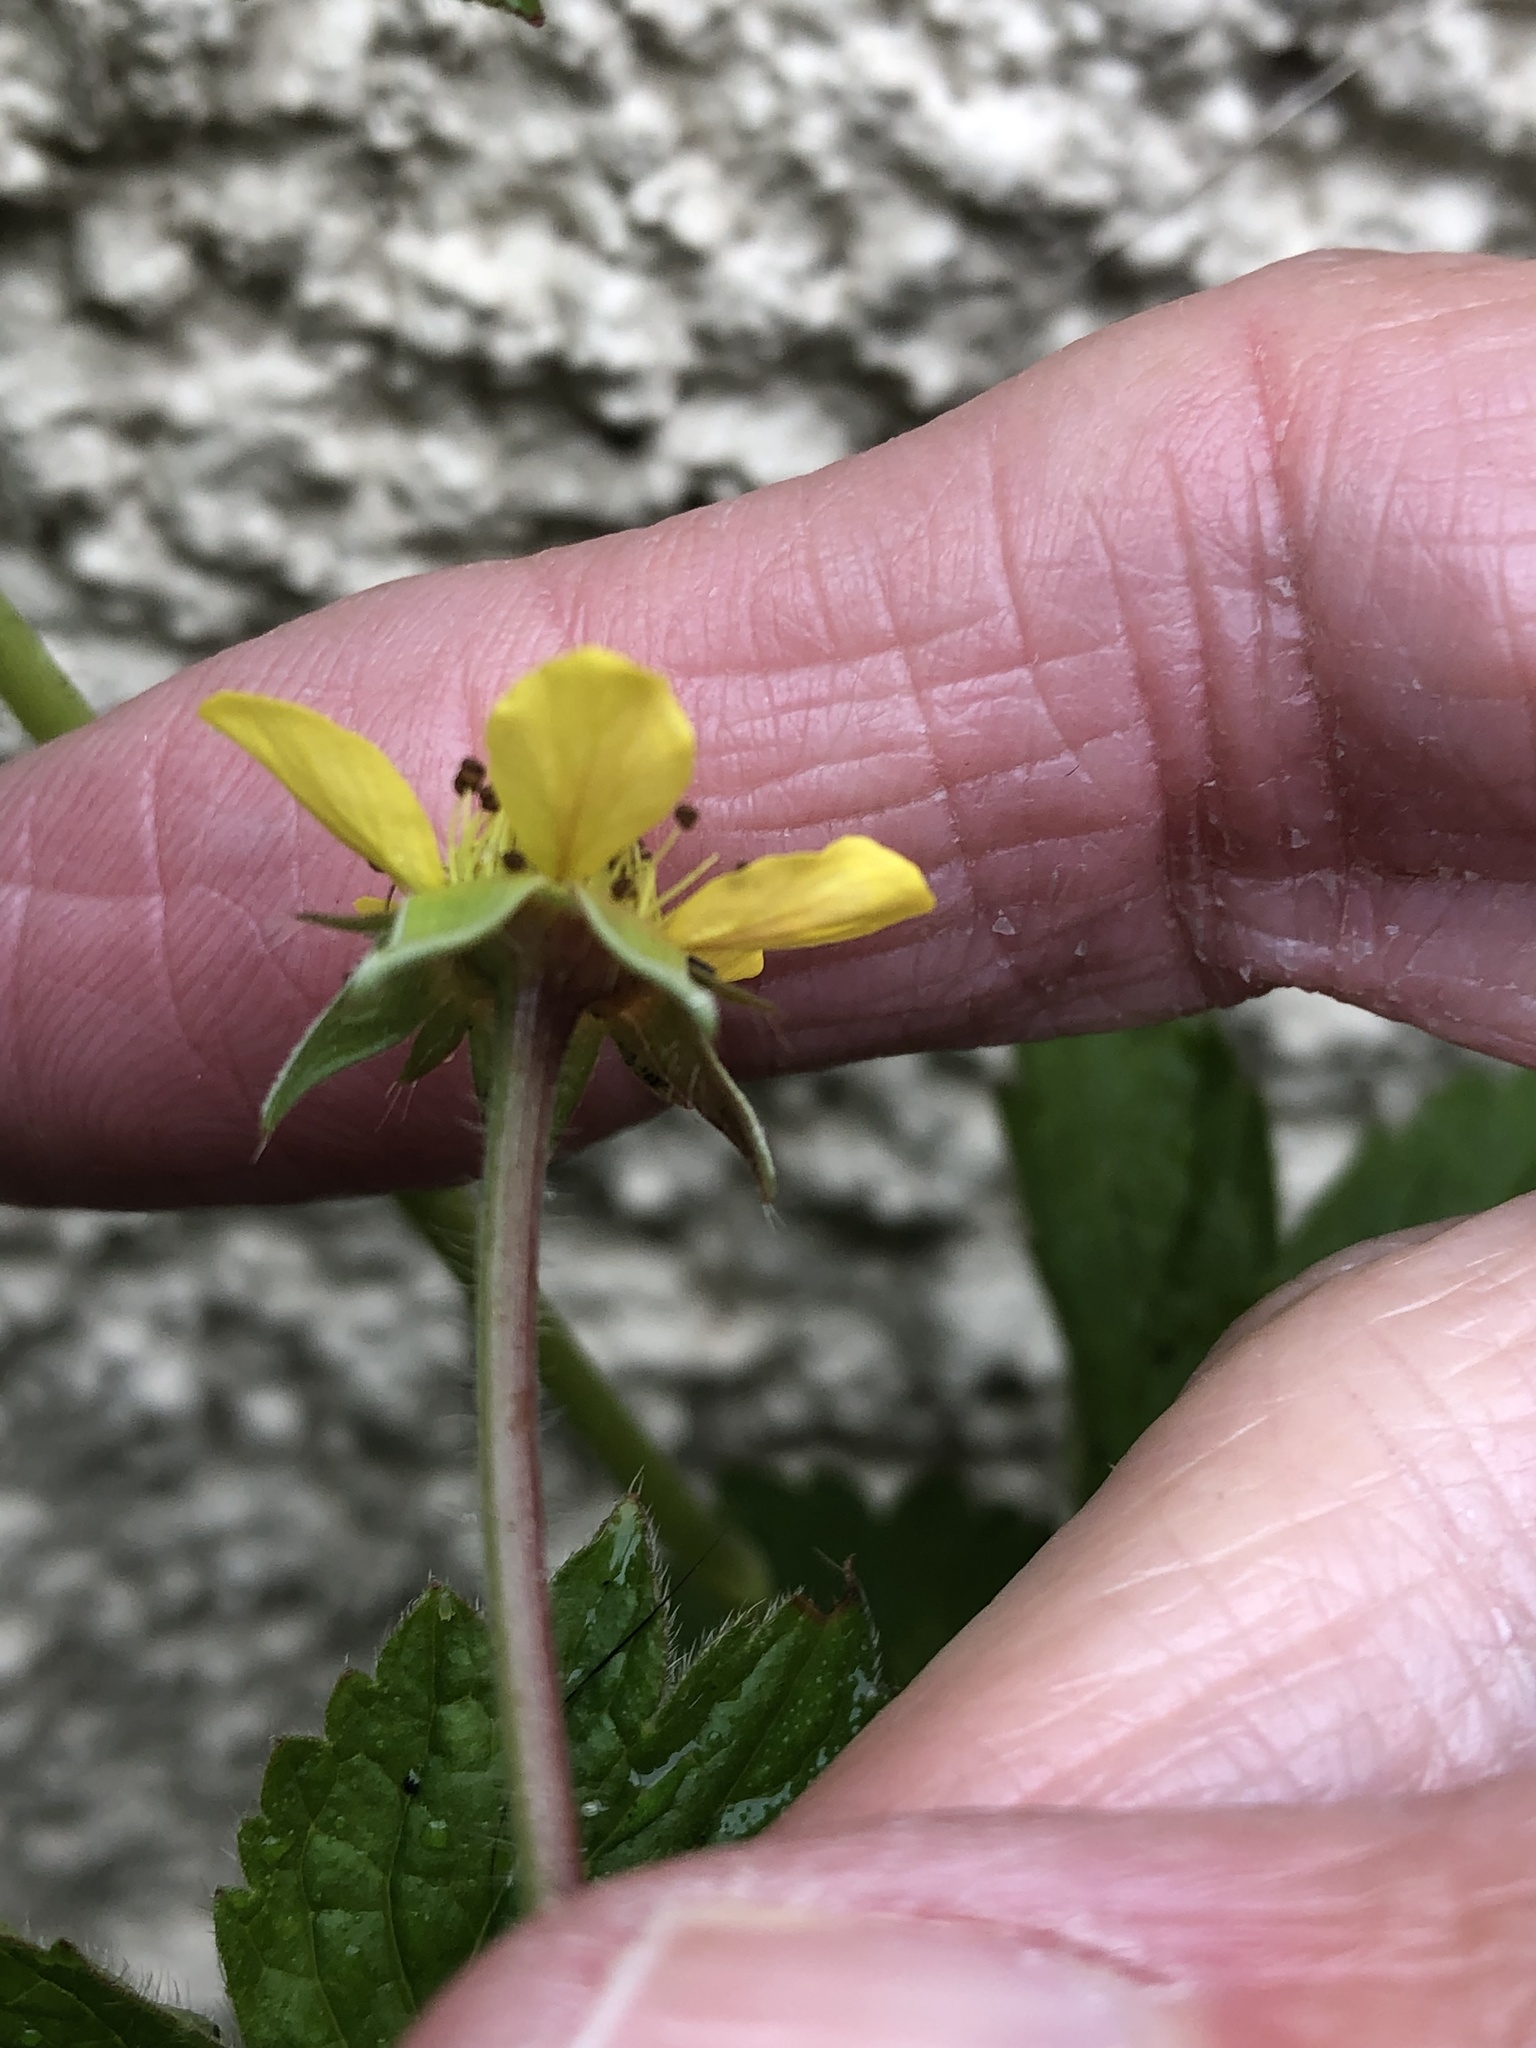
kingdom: Plantae
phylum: Tracheophyta
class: Magnoliopsida
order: Rosales
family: Rosaceae
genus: Geum
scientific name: Geum urbanum
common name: Wood avens
